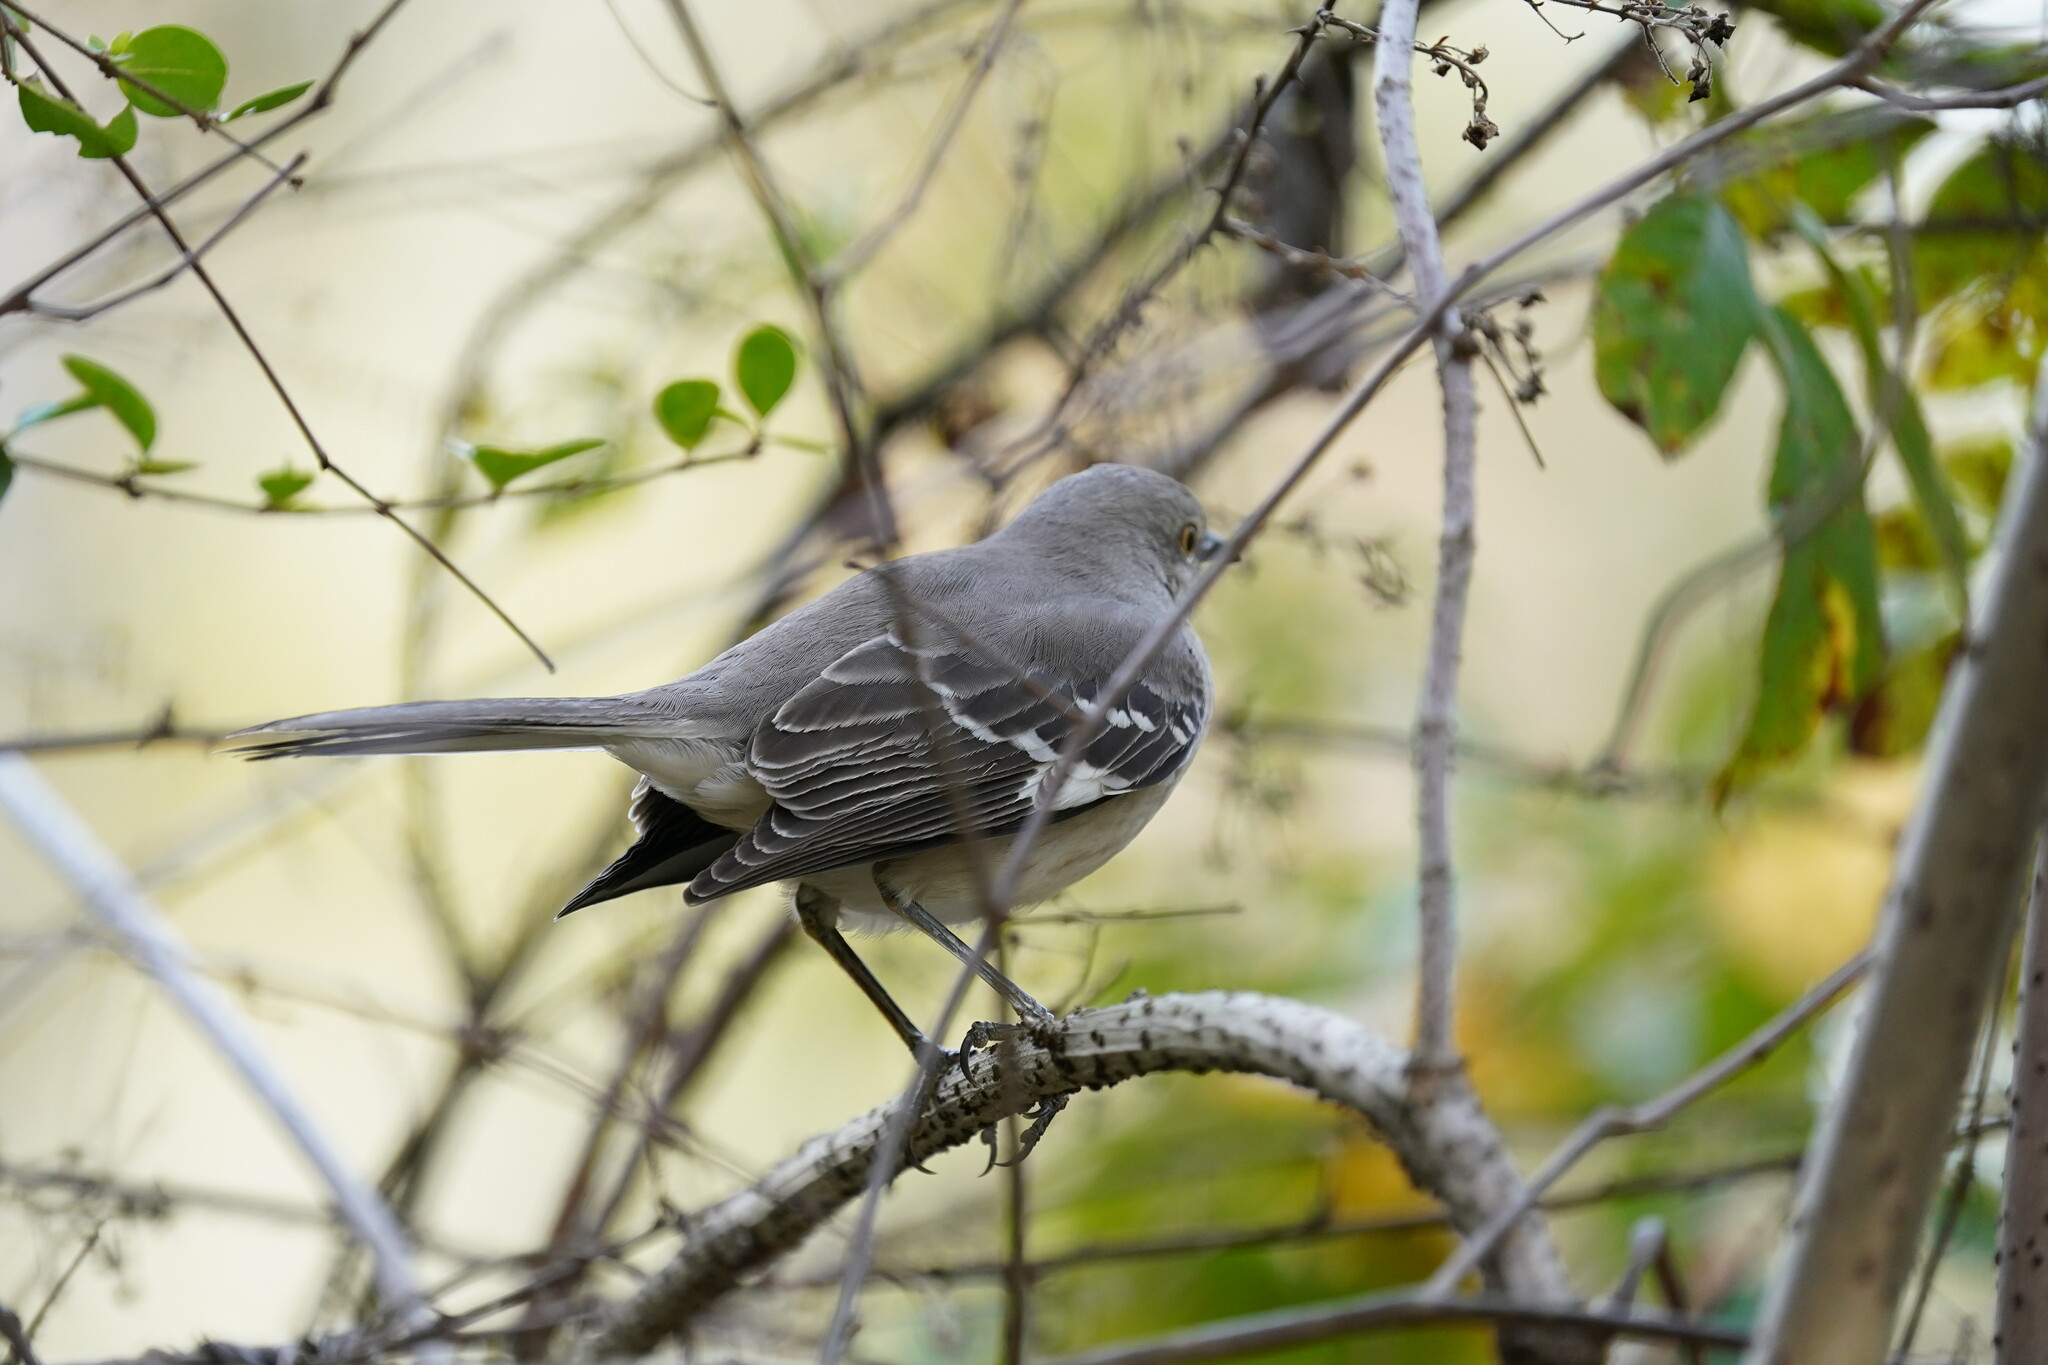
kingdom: Animalia
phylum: Chordata
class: Aves
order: Passeriformes
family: Mimidae
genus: Mimus
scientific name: Mimus polyglottos
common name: Northern mockingbird
